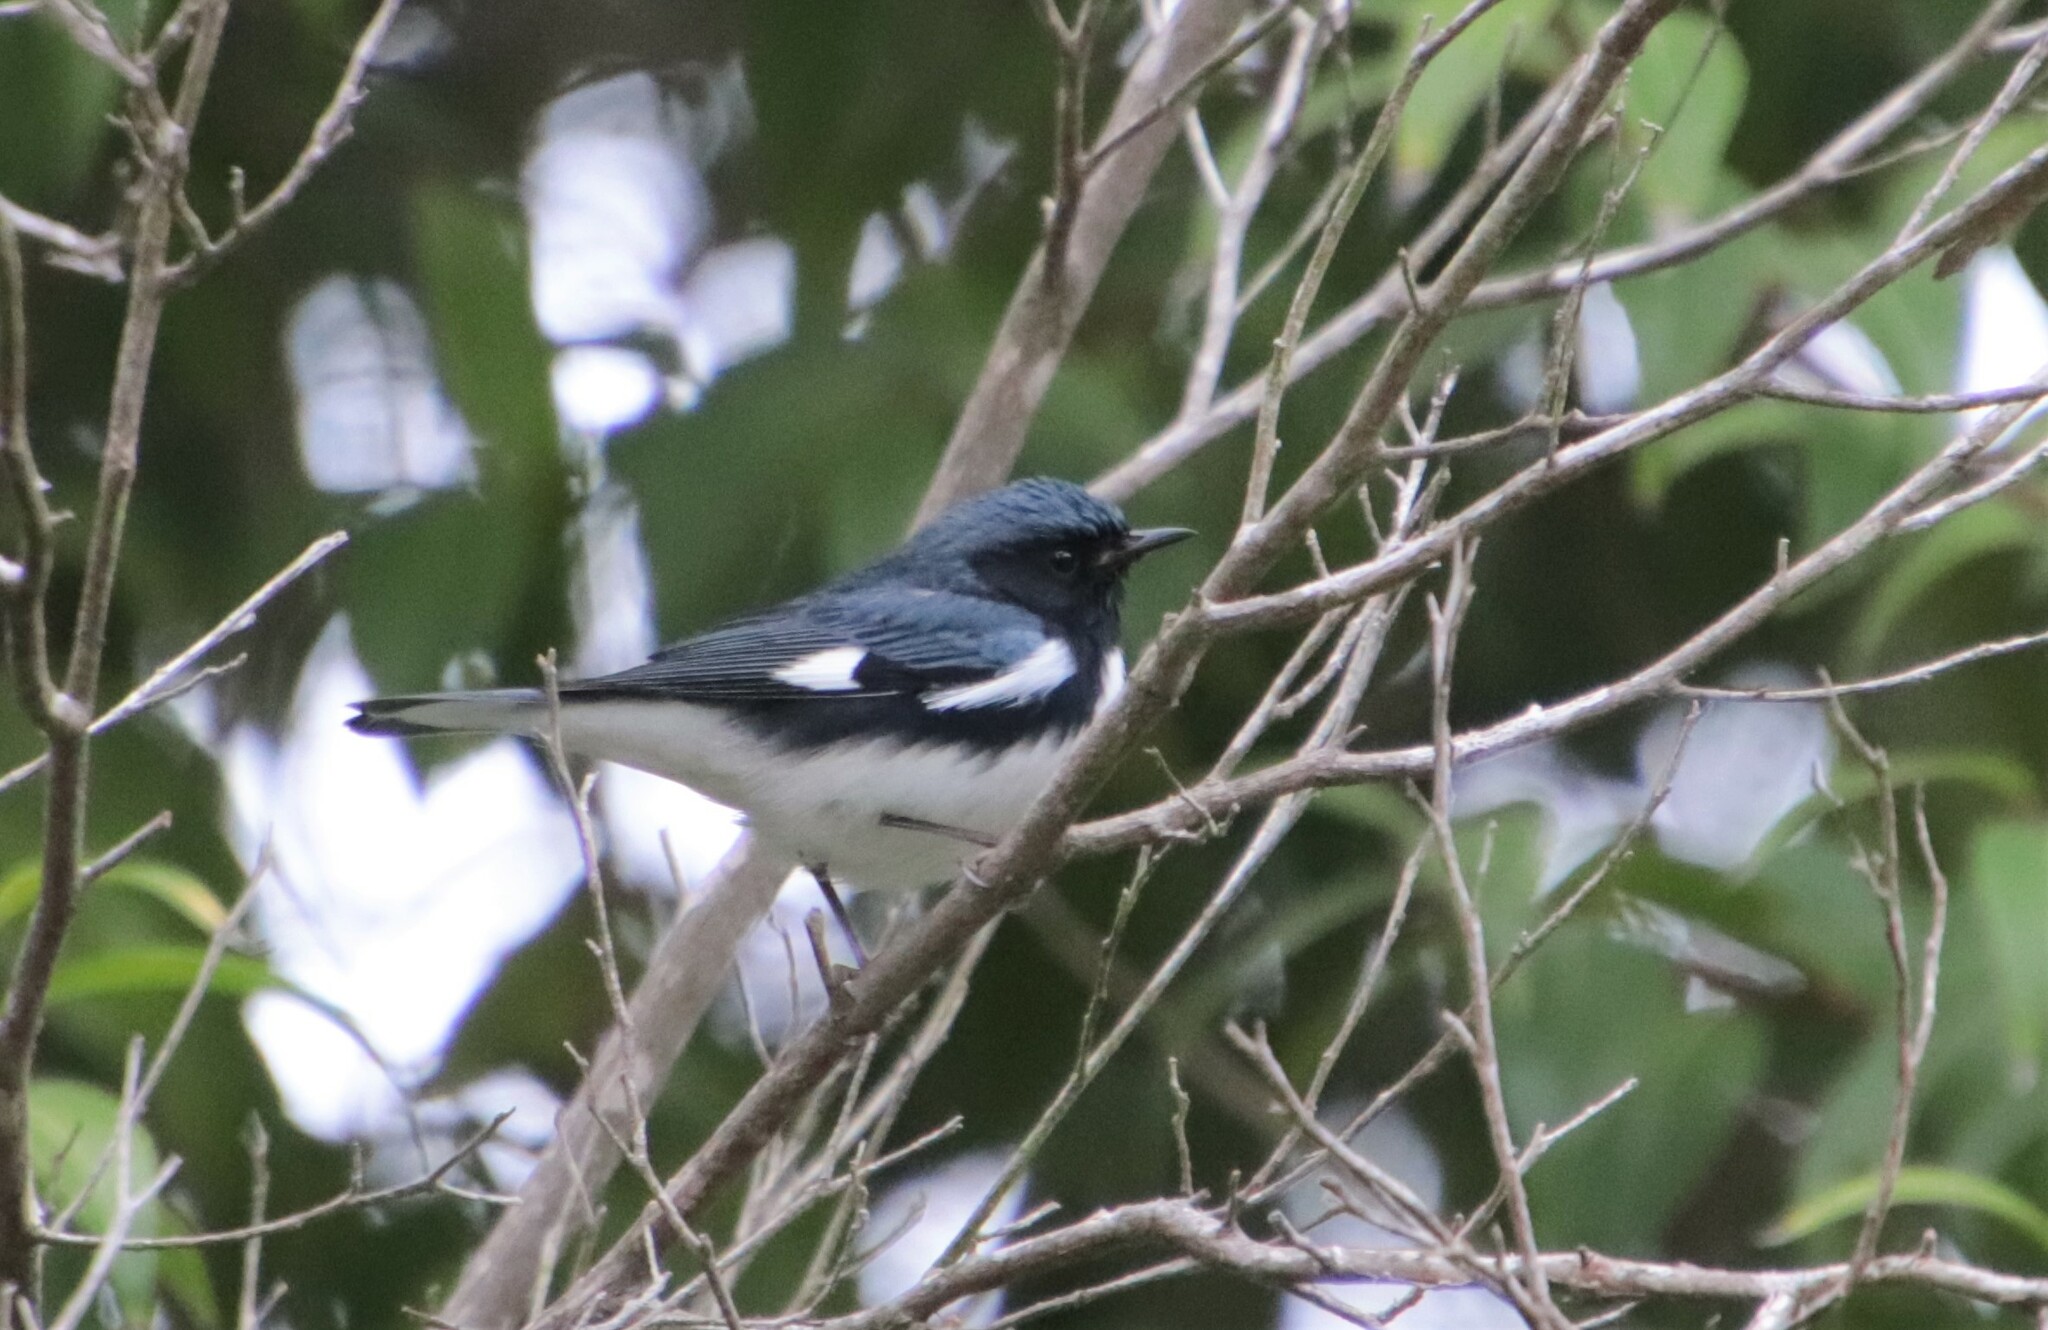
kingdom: Animalia
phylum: Chordata
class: Aves
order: Passeriformes
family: Parulidae
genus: Setophaga
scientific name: Setophaga caerulescens
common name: Black-throated blue warbler
